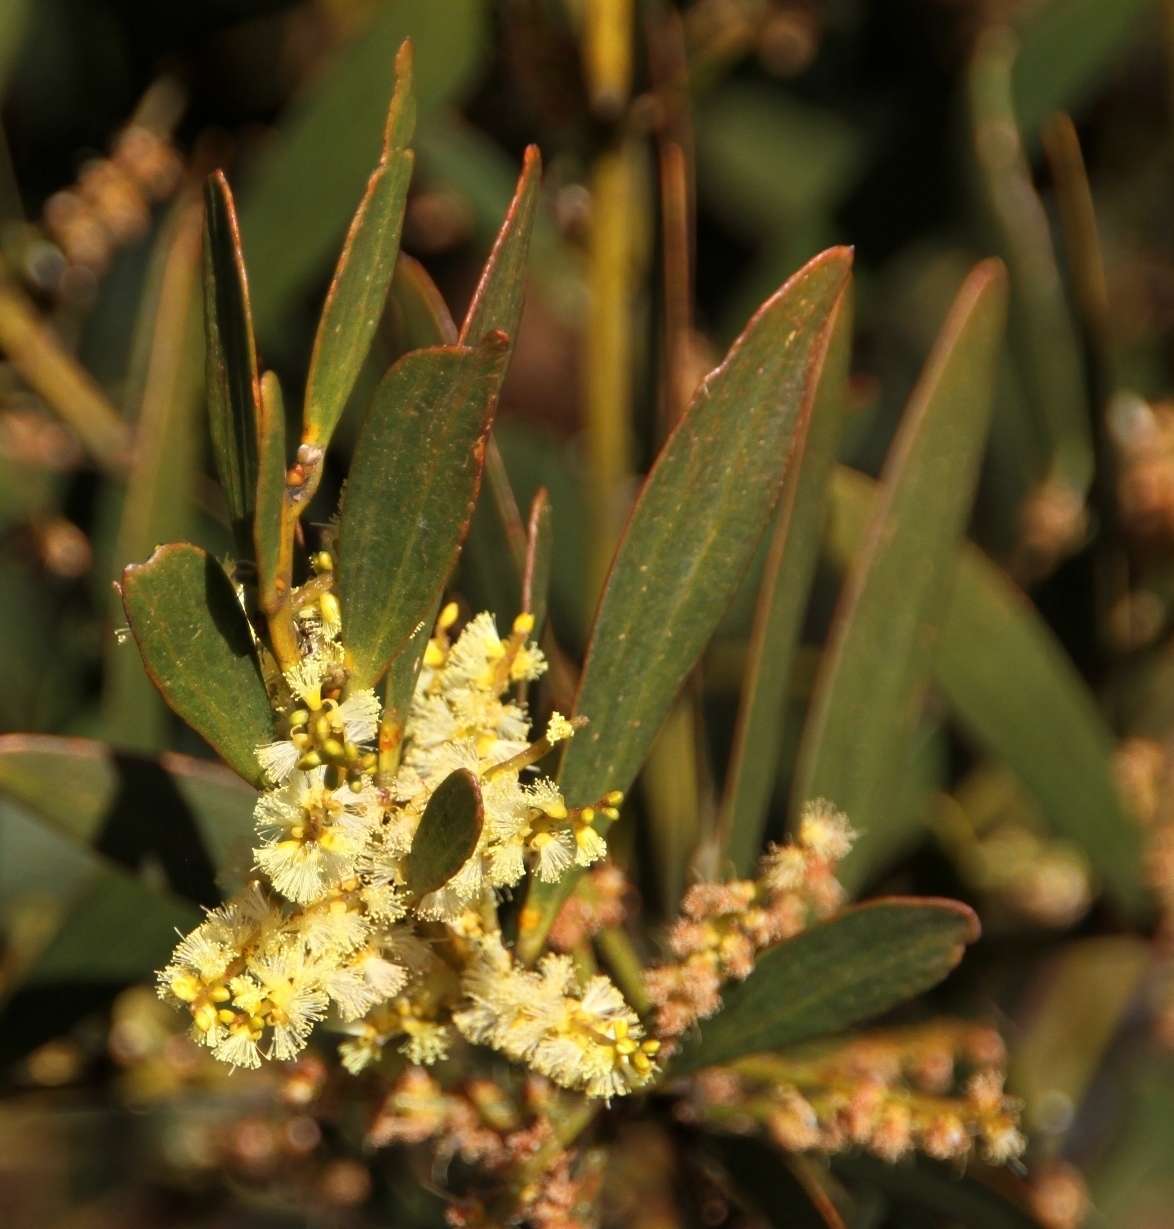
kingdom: Plantae
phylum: Tracheophyta
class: Magnoliopsida
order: Fabales
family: Fabaceae
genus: Acacia
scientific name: Acacia longifolia
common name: Sydney golden wattle
